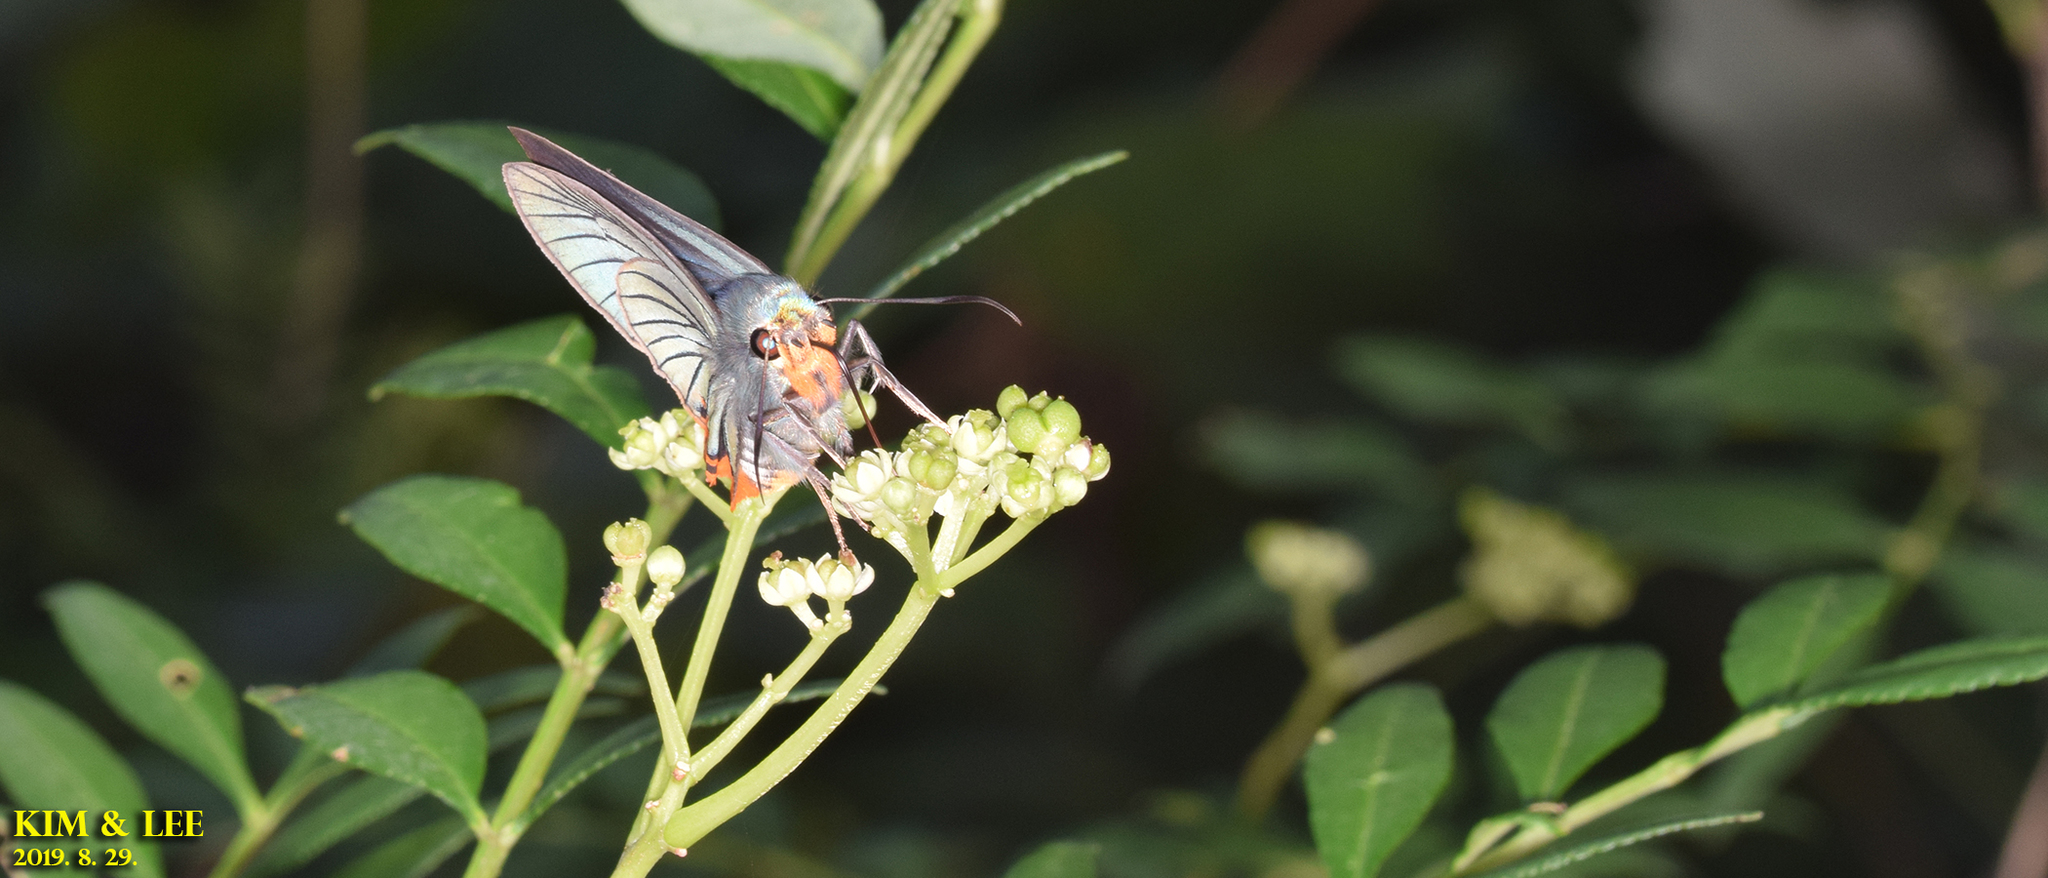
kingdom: Animalia
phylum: Arthropoda
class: Insecta
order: Lepidoptera
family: Hesperiidae
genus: Choaspes
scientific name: Choaspes benjaminii
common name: Indian awlking
